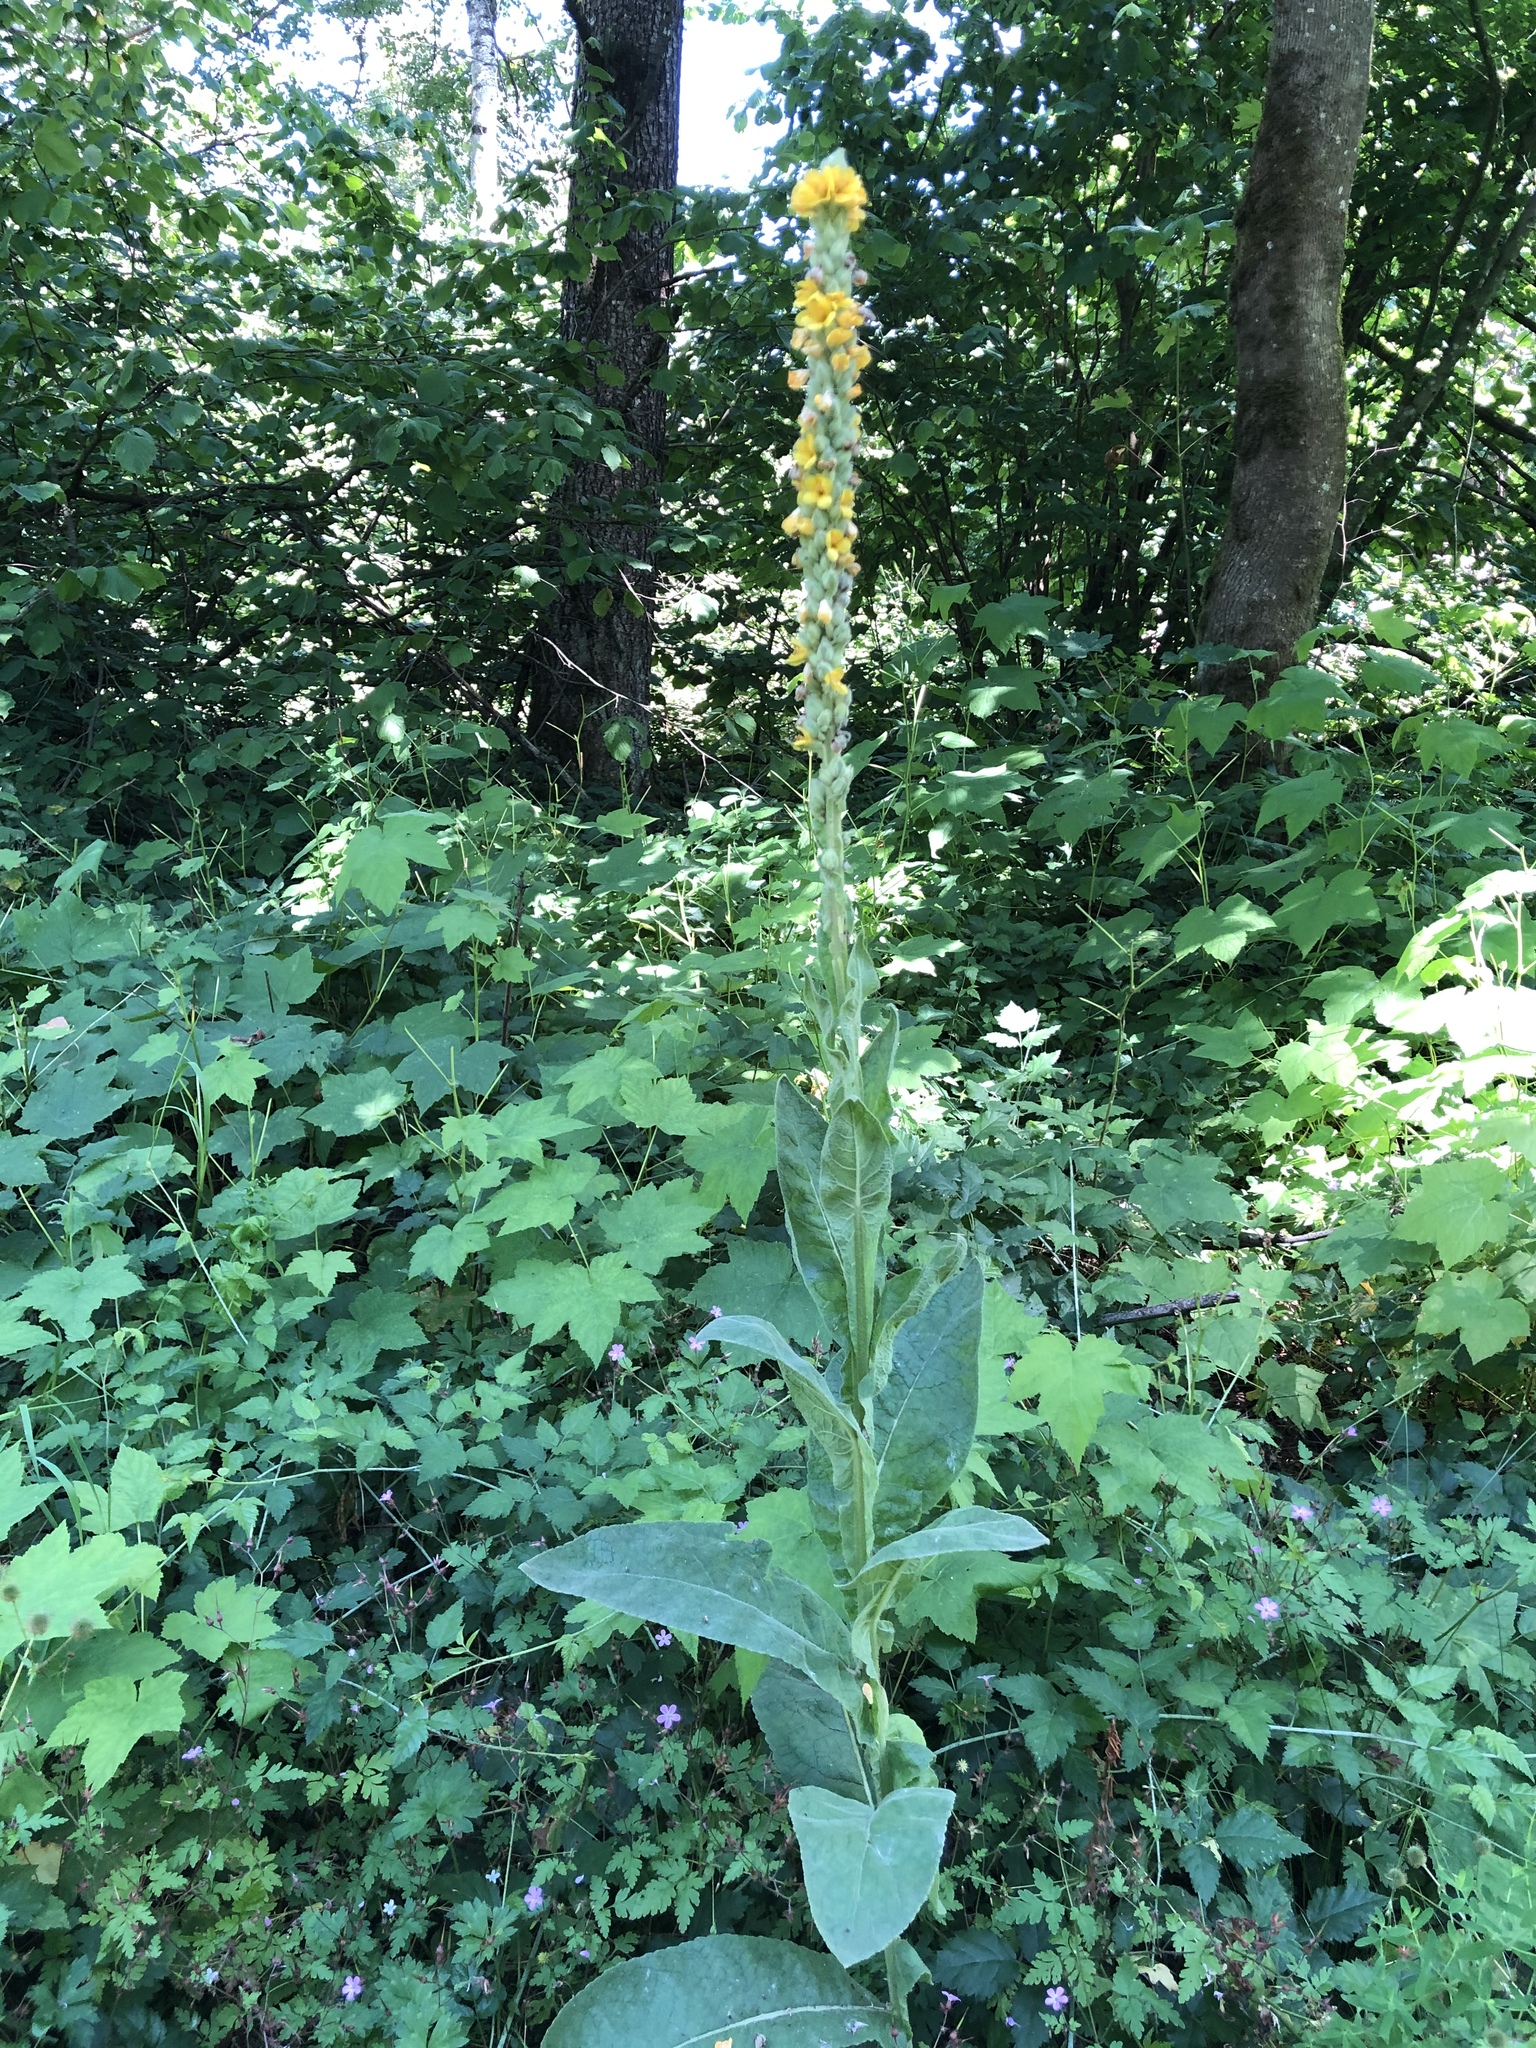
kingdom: Plantae
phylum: Tracheophyta
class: Magnoliopsida
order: Lamiales
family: Scrophulariaceae
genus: Verbascum
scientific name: Verbascum thapsus
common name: Common mullein
